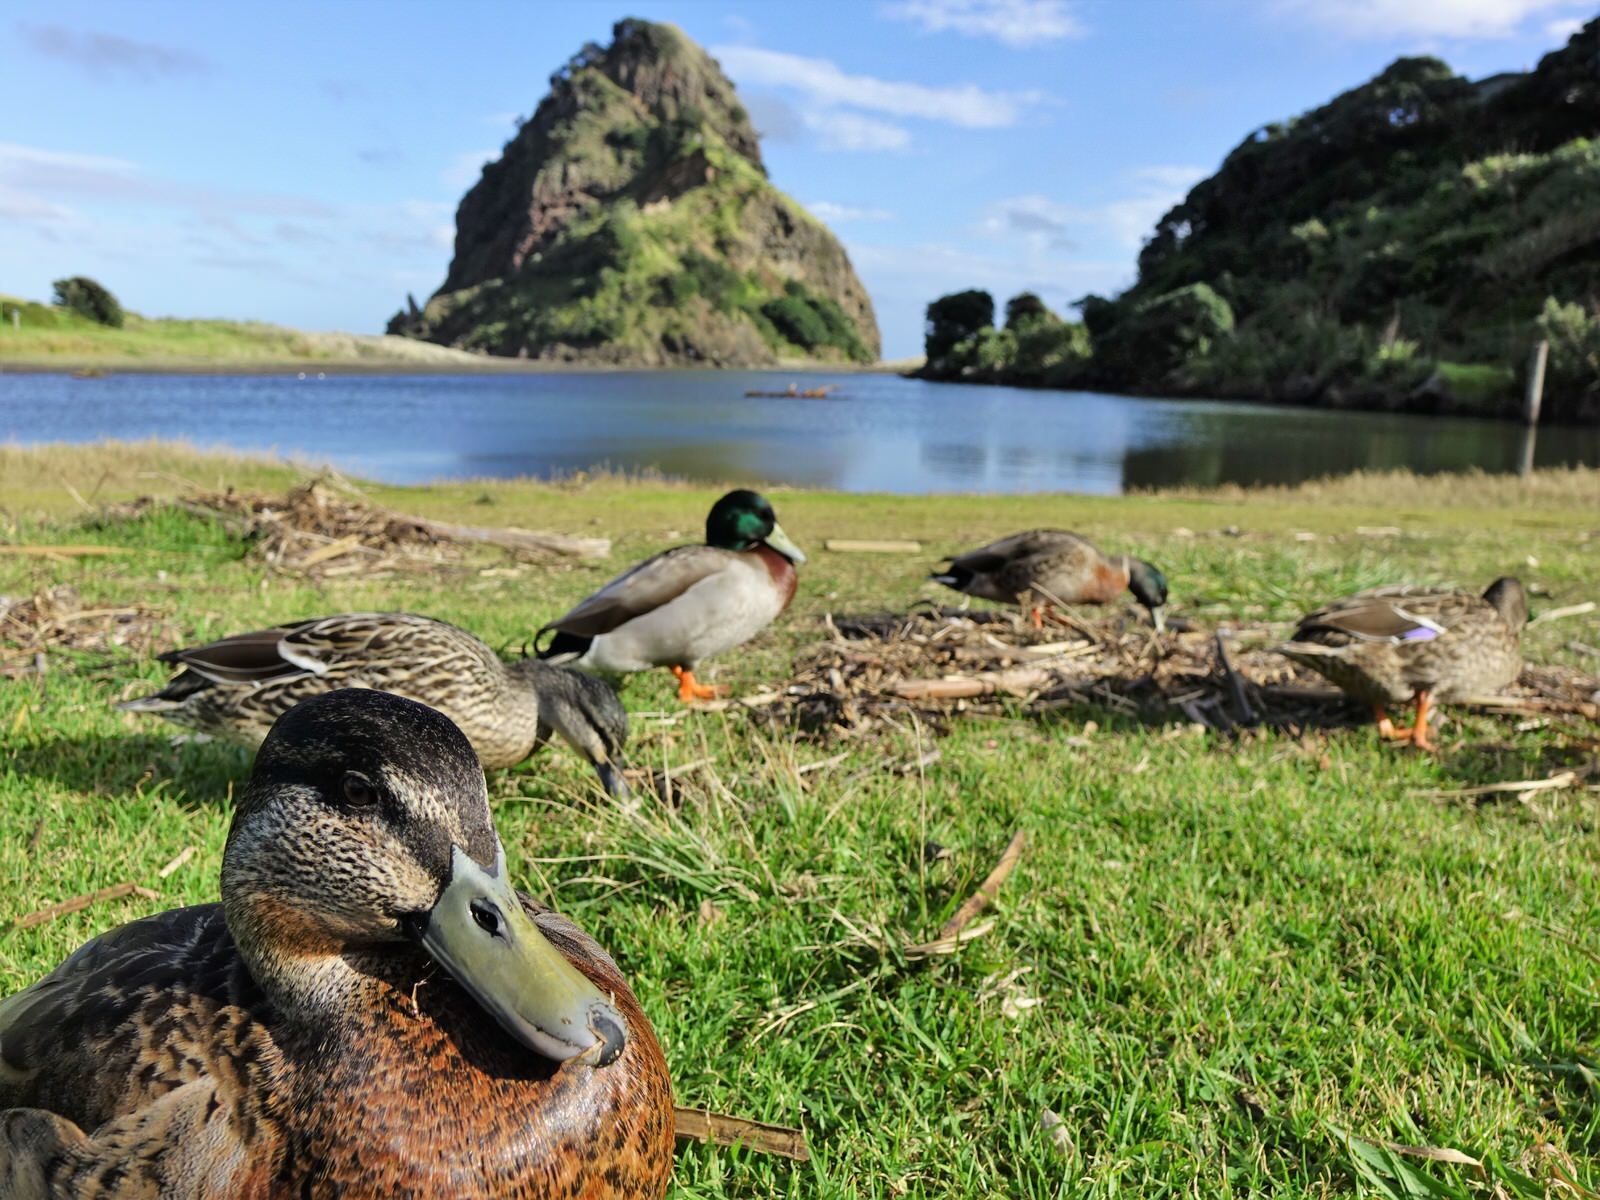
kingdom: Animalia
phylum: Chordata
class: Aves
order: Anseriformes
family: Anatidae
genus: Anas
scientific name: Anas
